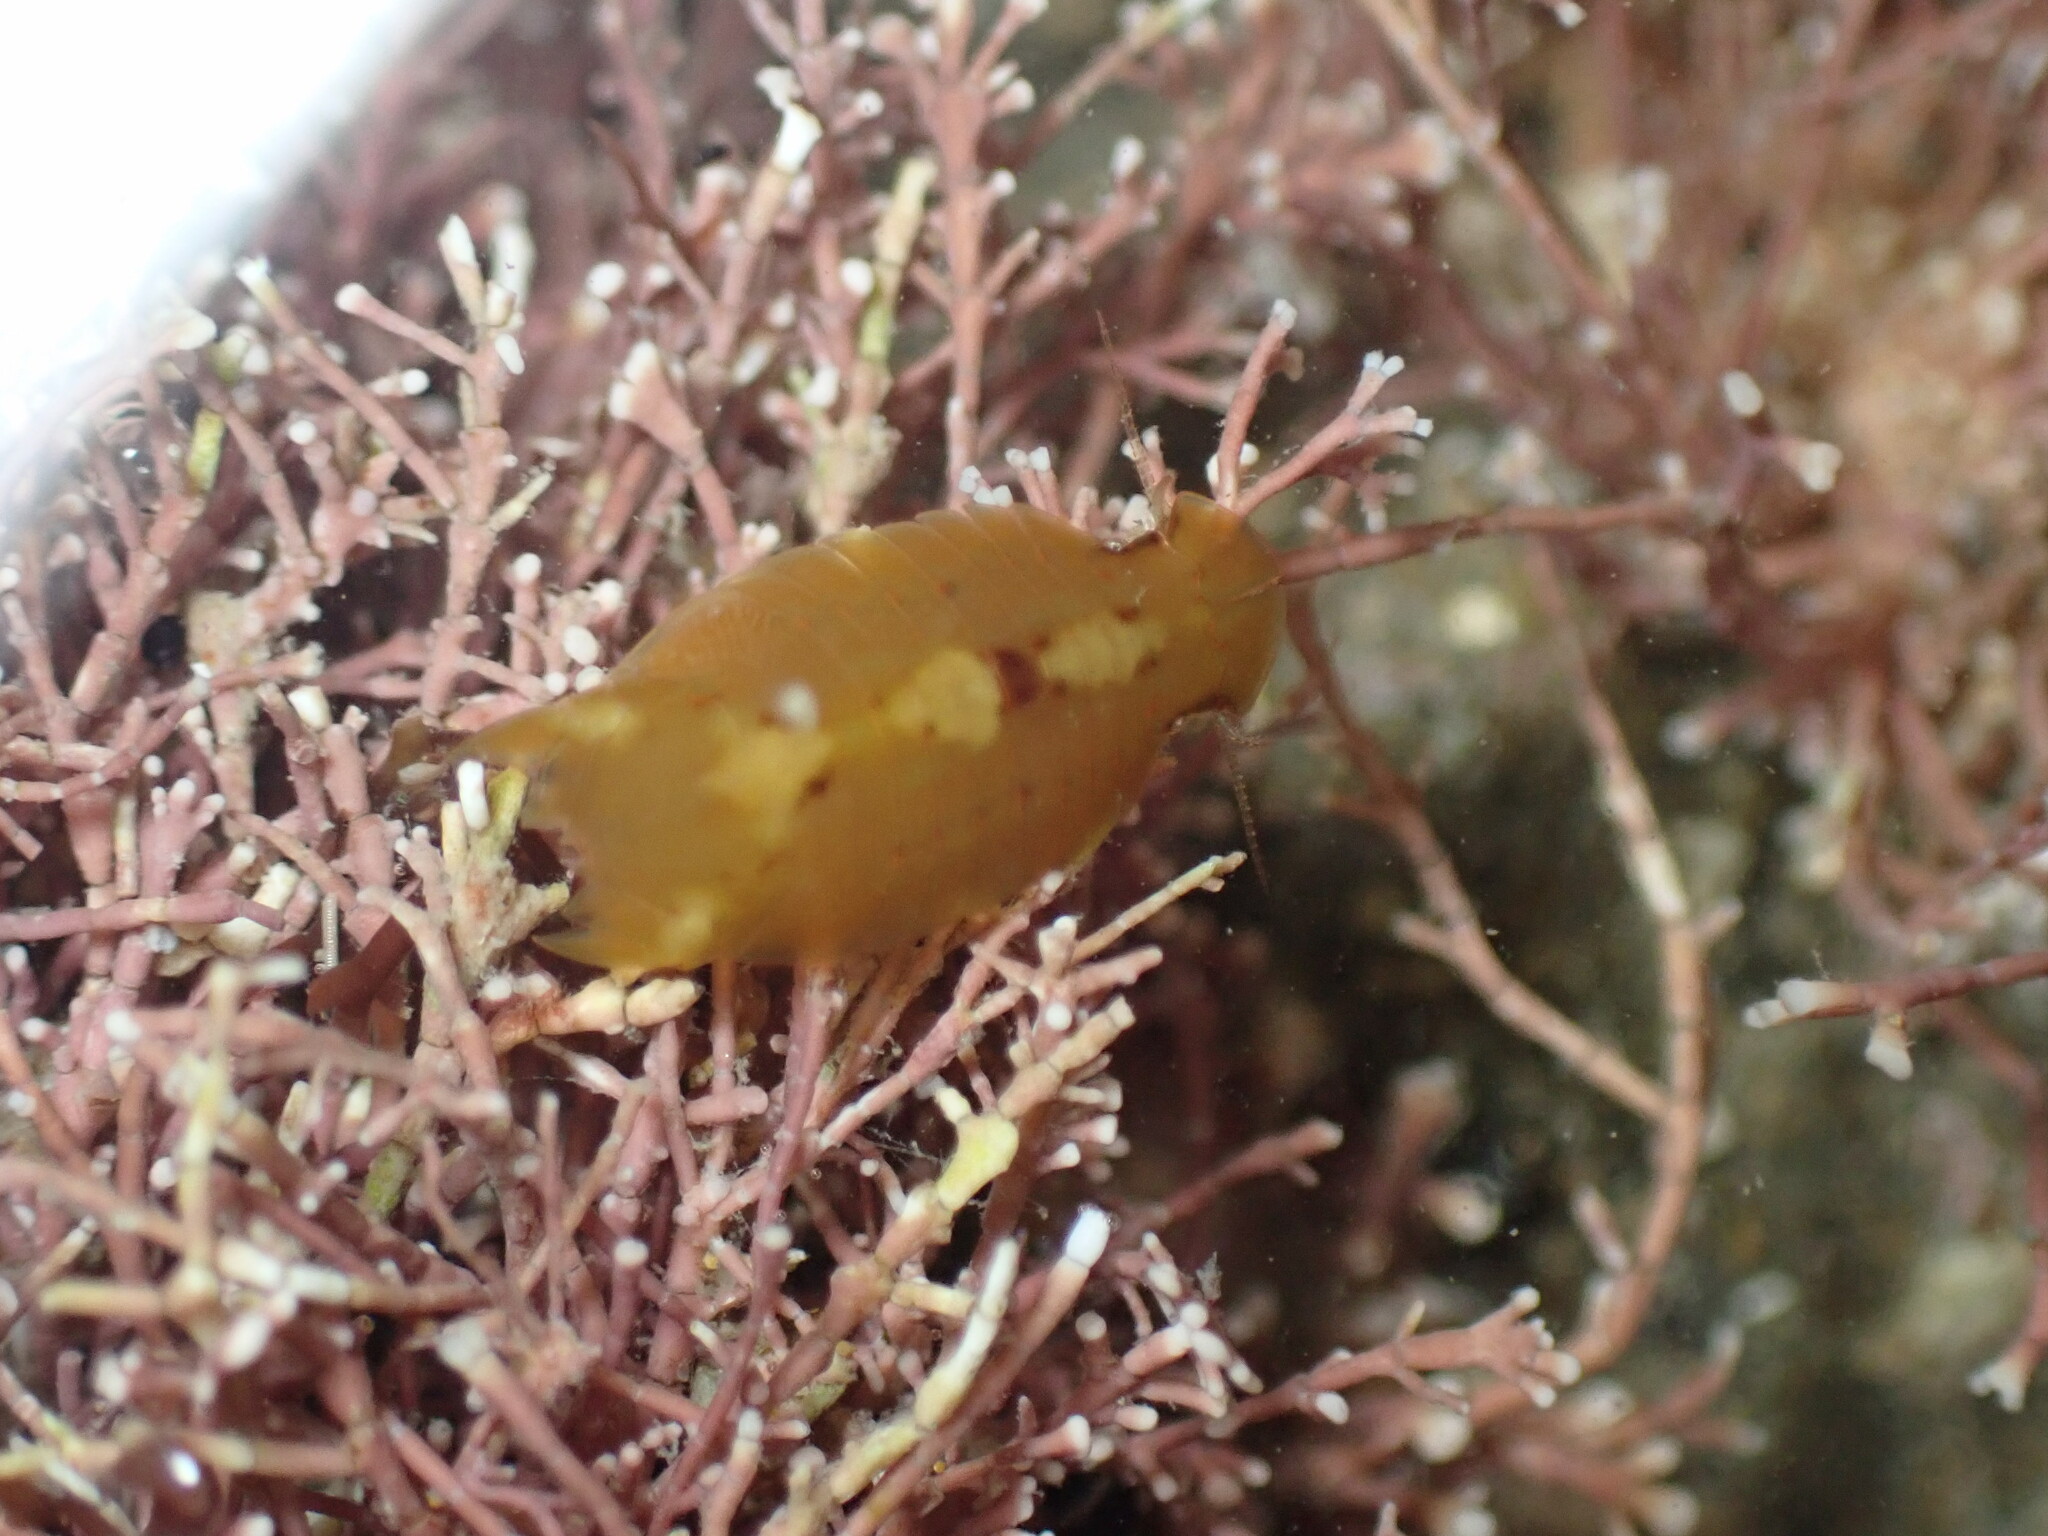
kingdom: Animalia
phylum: Arthropoda
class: Malacostraca
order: Isopoda
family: Sphaeromatidae
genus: Amphoroidea
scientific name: Amphoroidea media
